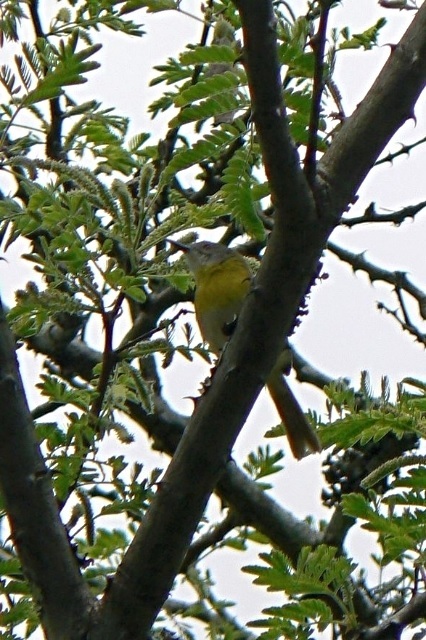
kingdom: Animalia
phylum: Chordata
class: Aves
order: Passeriformes
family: Cisticolidae
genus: Apalis
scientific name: Apalis flavida
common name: Yellow-breasted apalis
